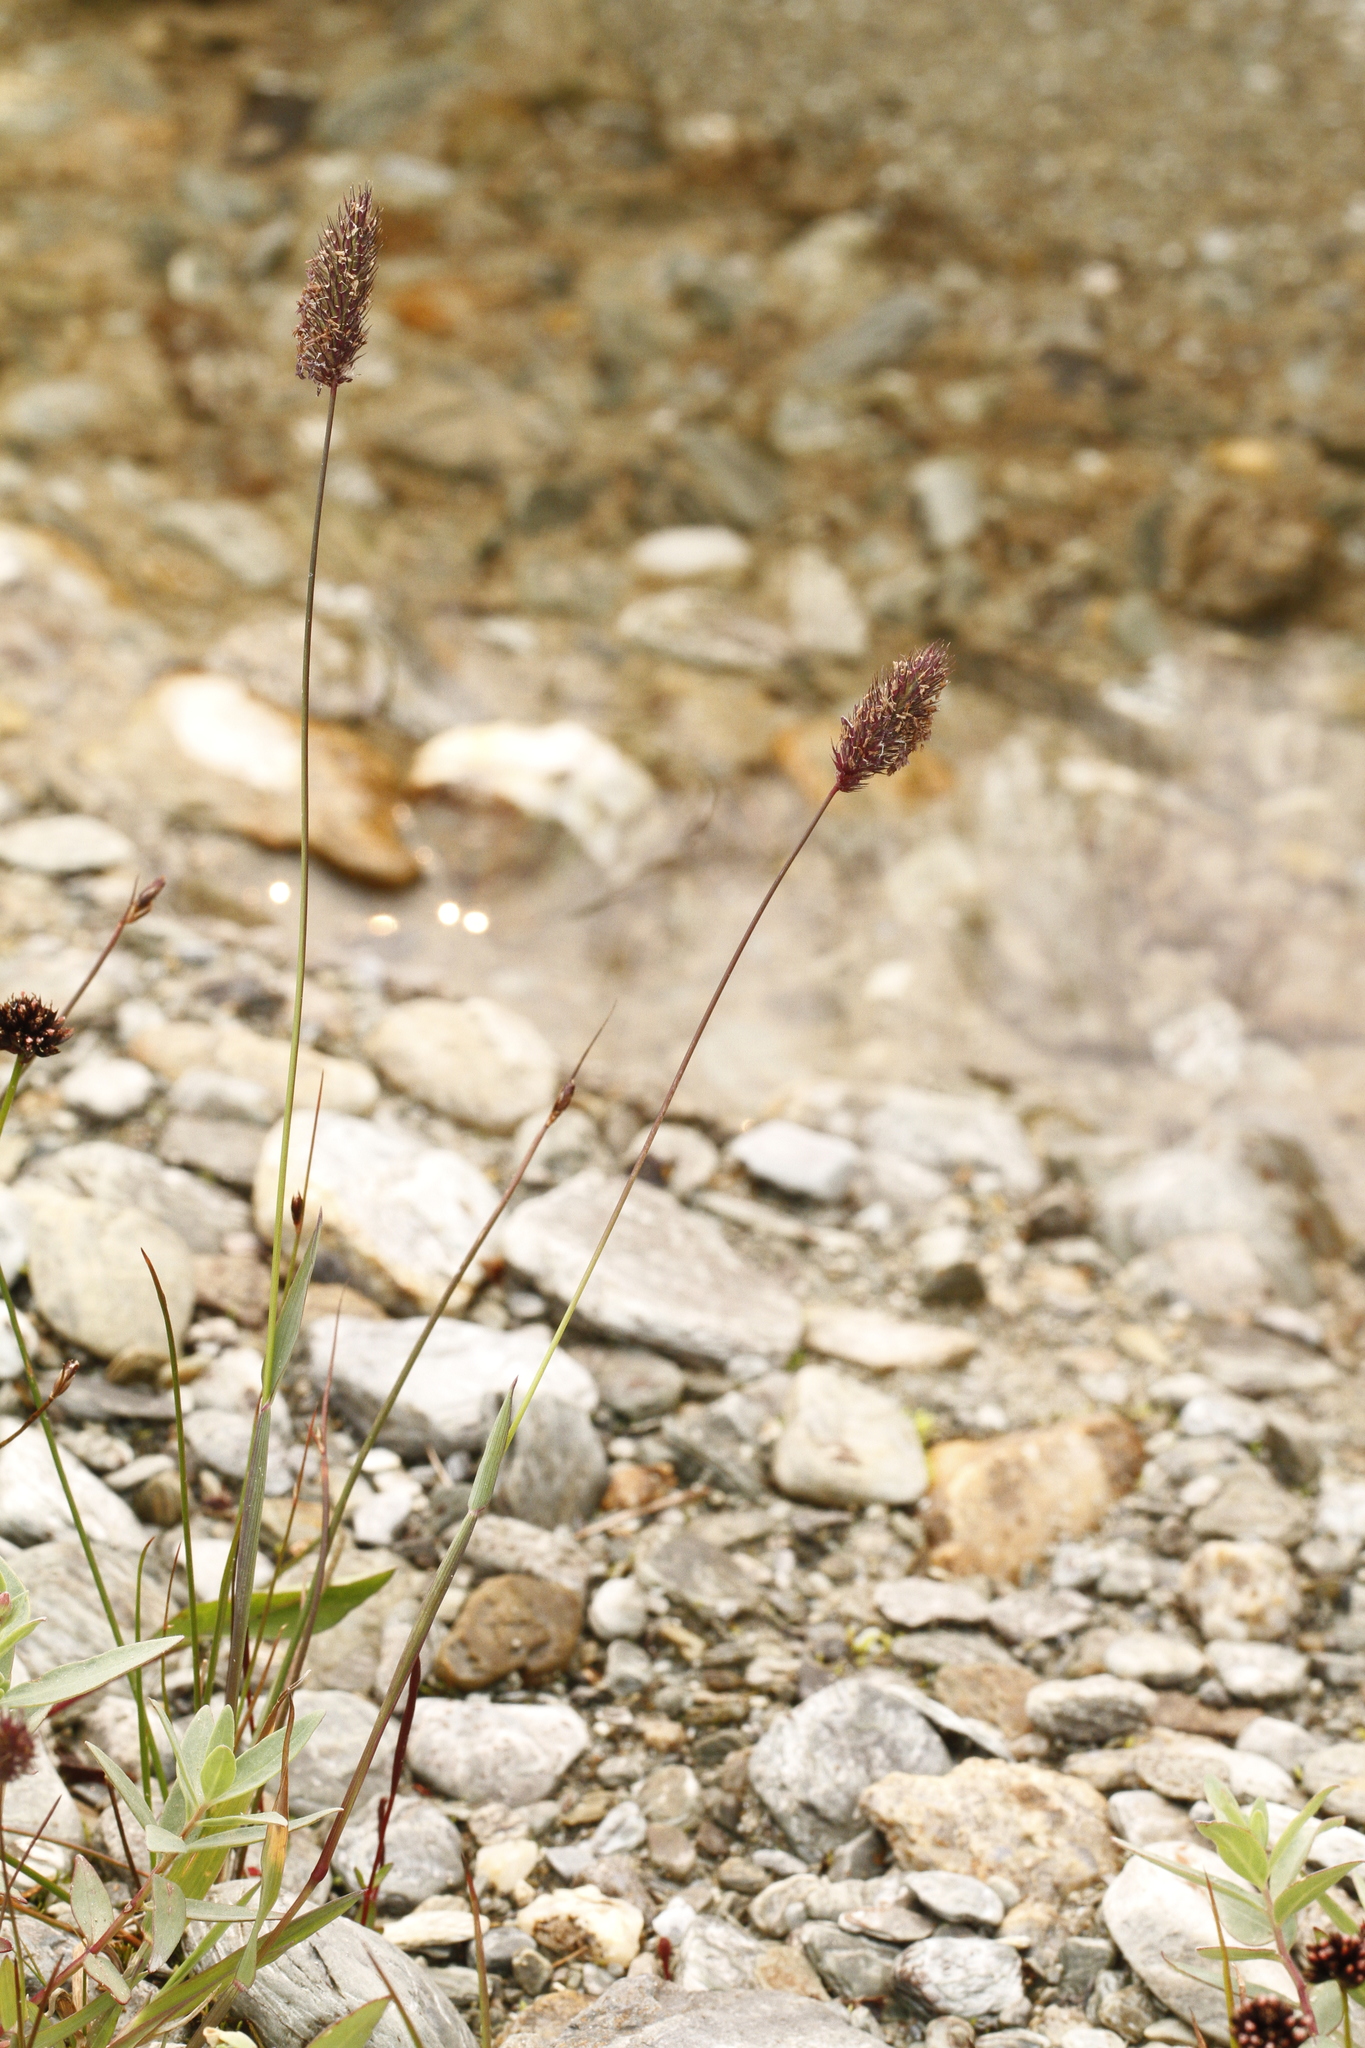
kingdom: Plantae
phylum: Tracheophyta
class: Liliopsida
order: Poales
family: Poaceae
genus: Phleum
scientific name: Phleum alpinum
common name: Alpine cat's-tail
